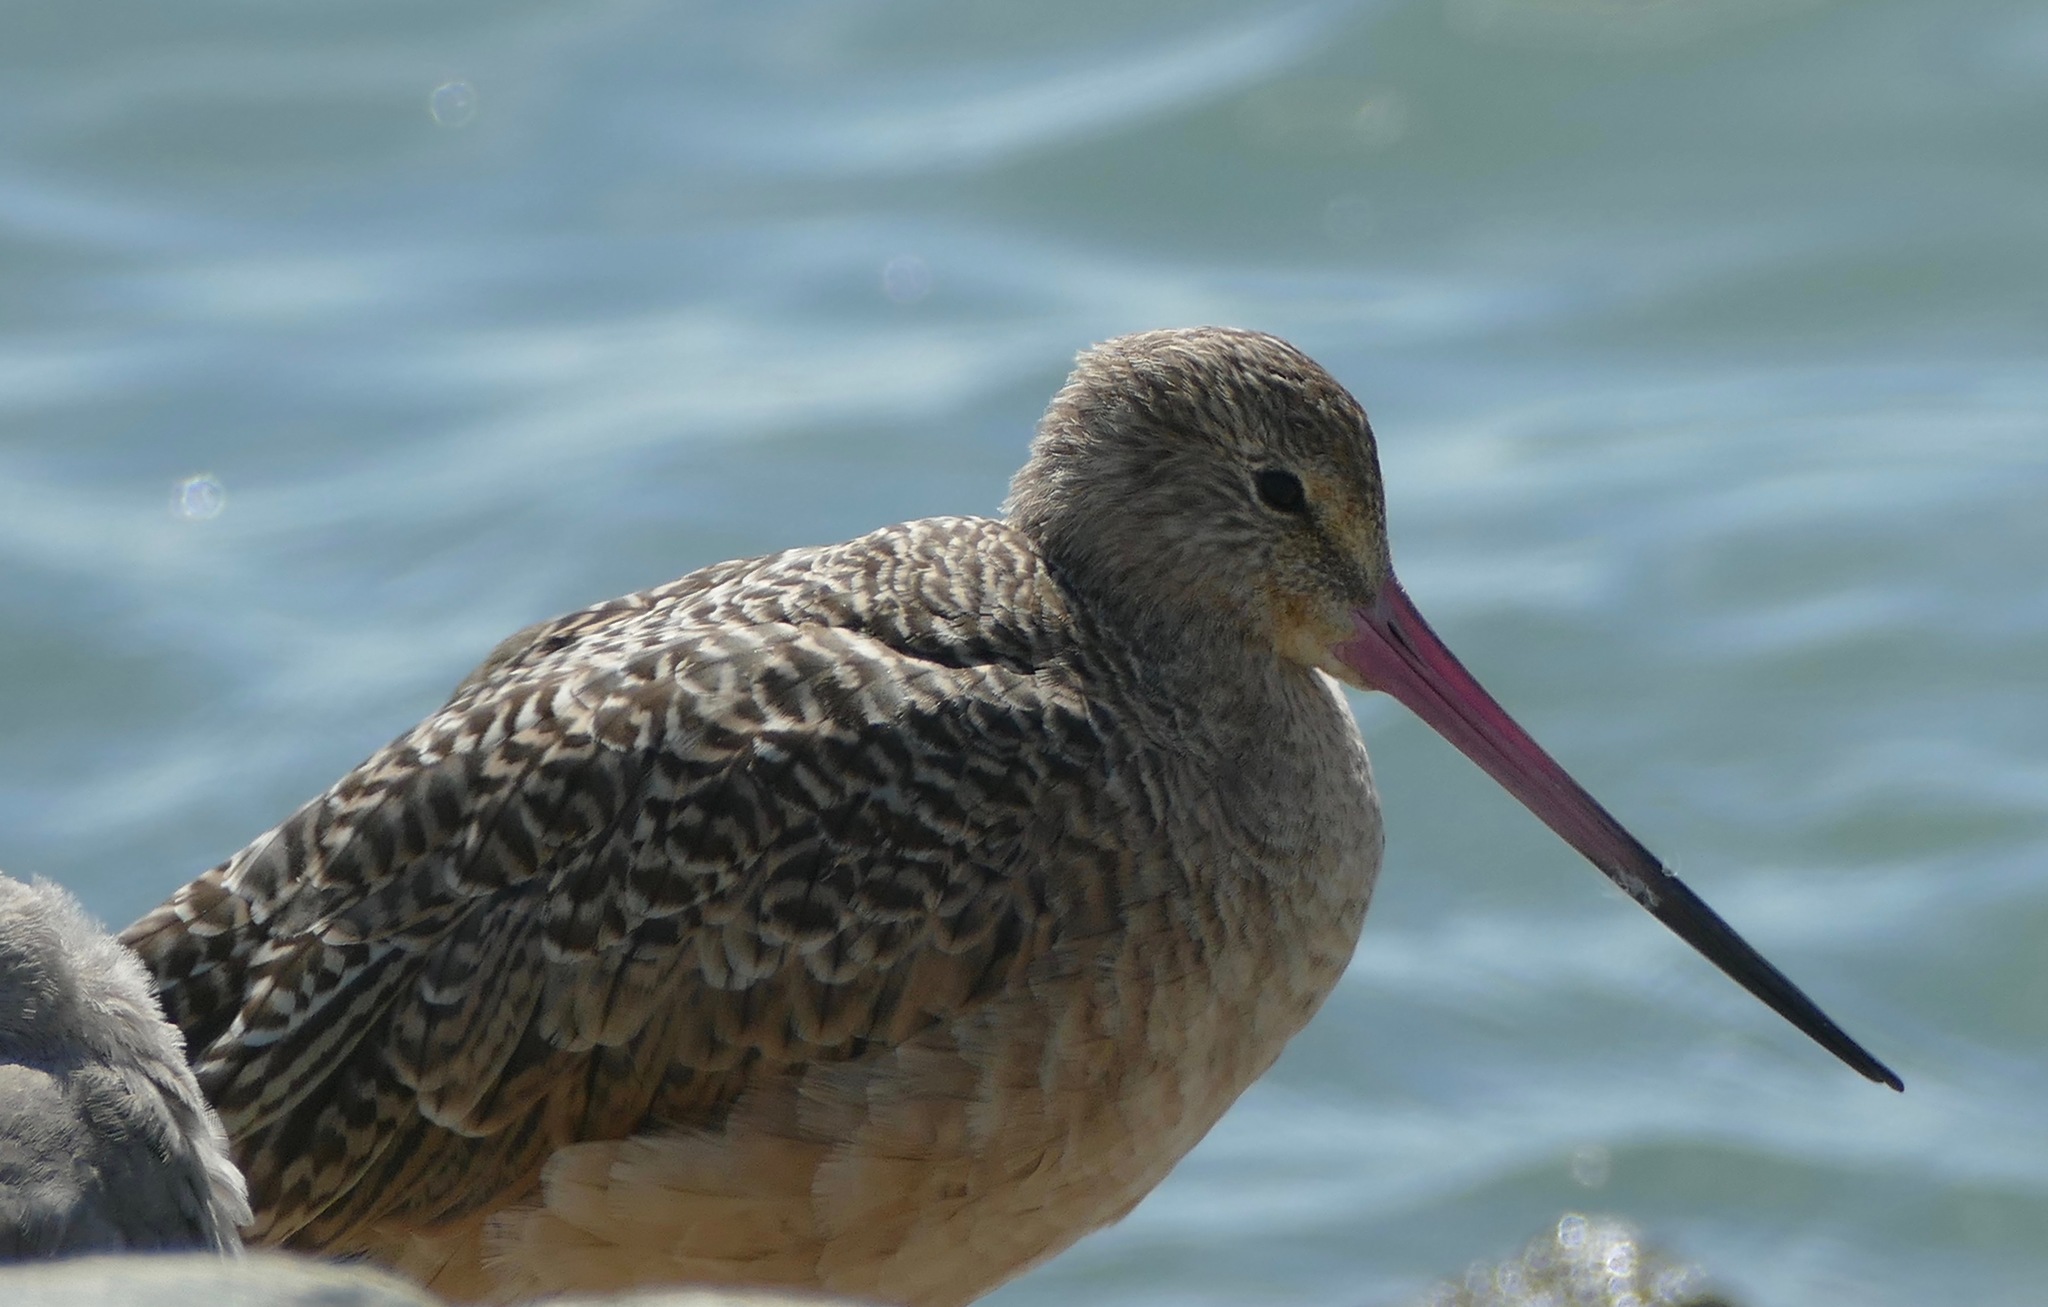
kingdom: Animalia
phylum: Chordata
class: Aves
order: Charadriiformes
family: Scolopacidae
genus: Limosa
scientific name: Limosa fedoa
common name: Marbled godwit
